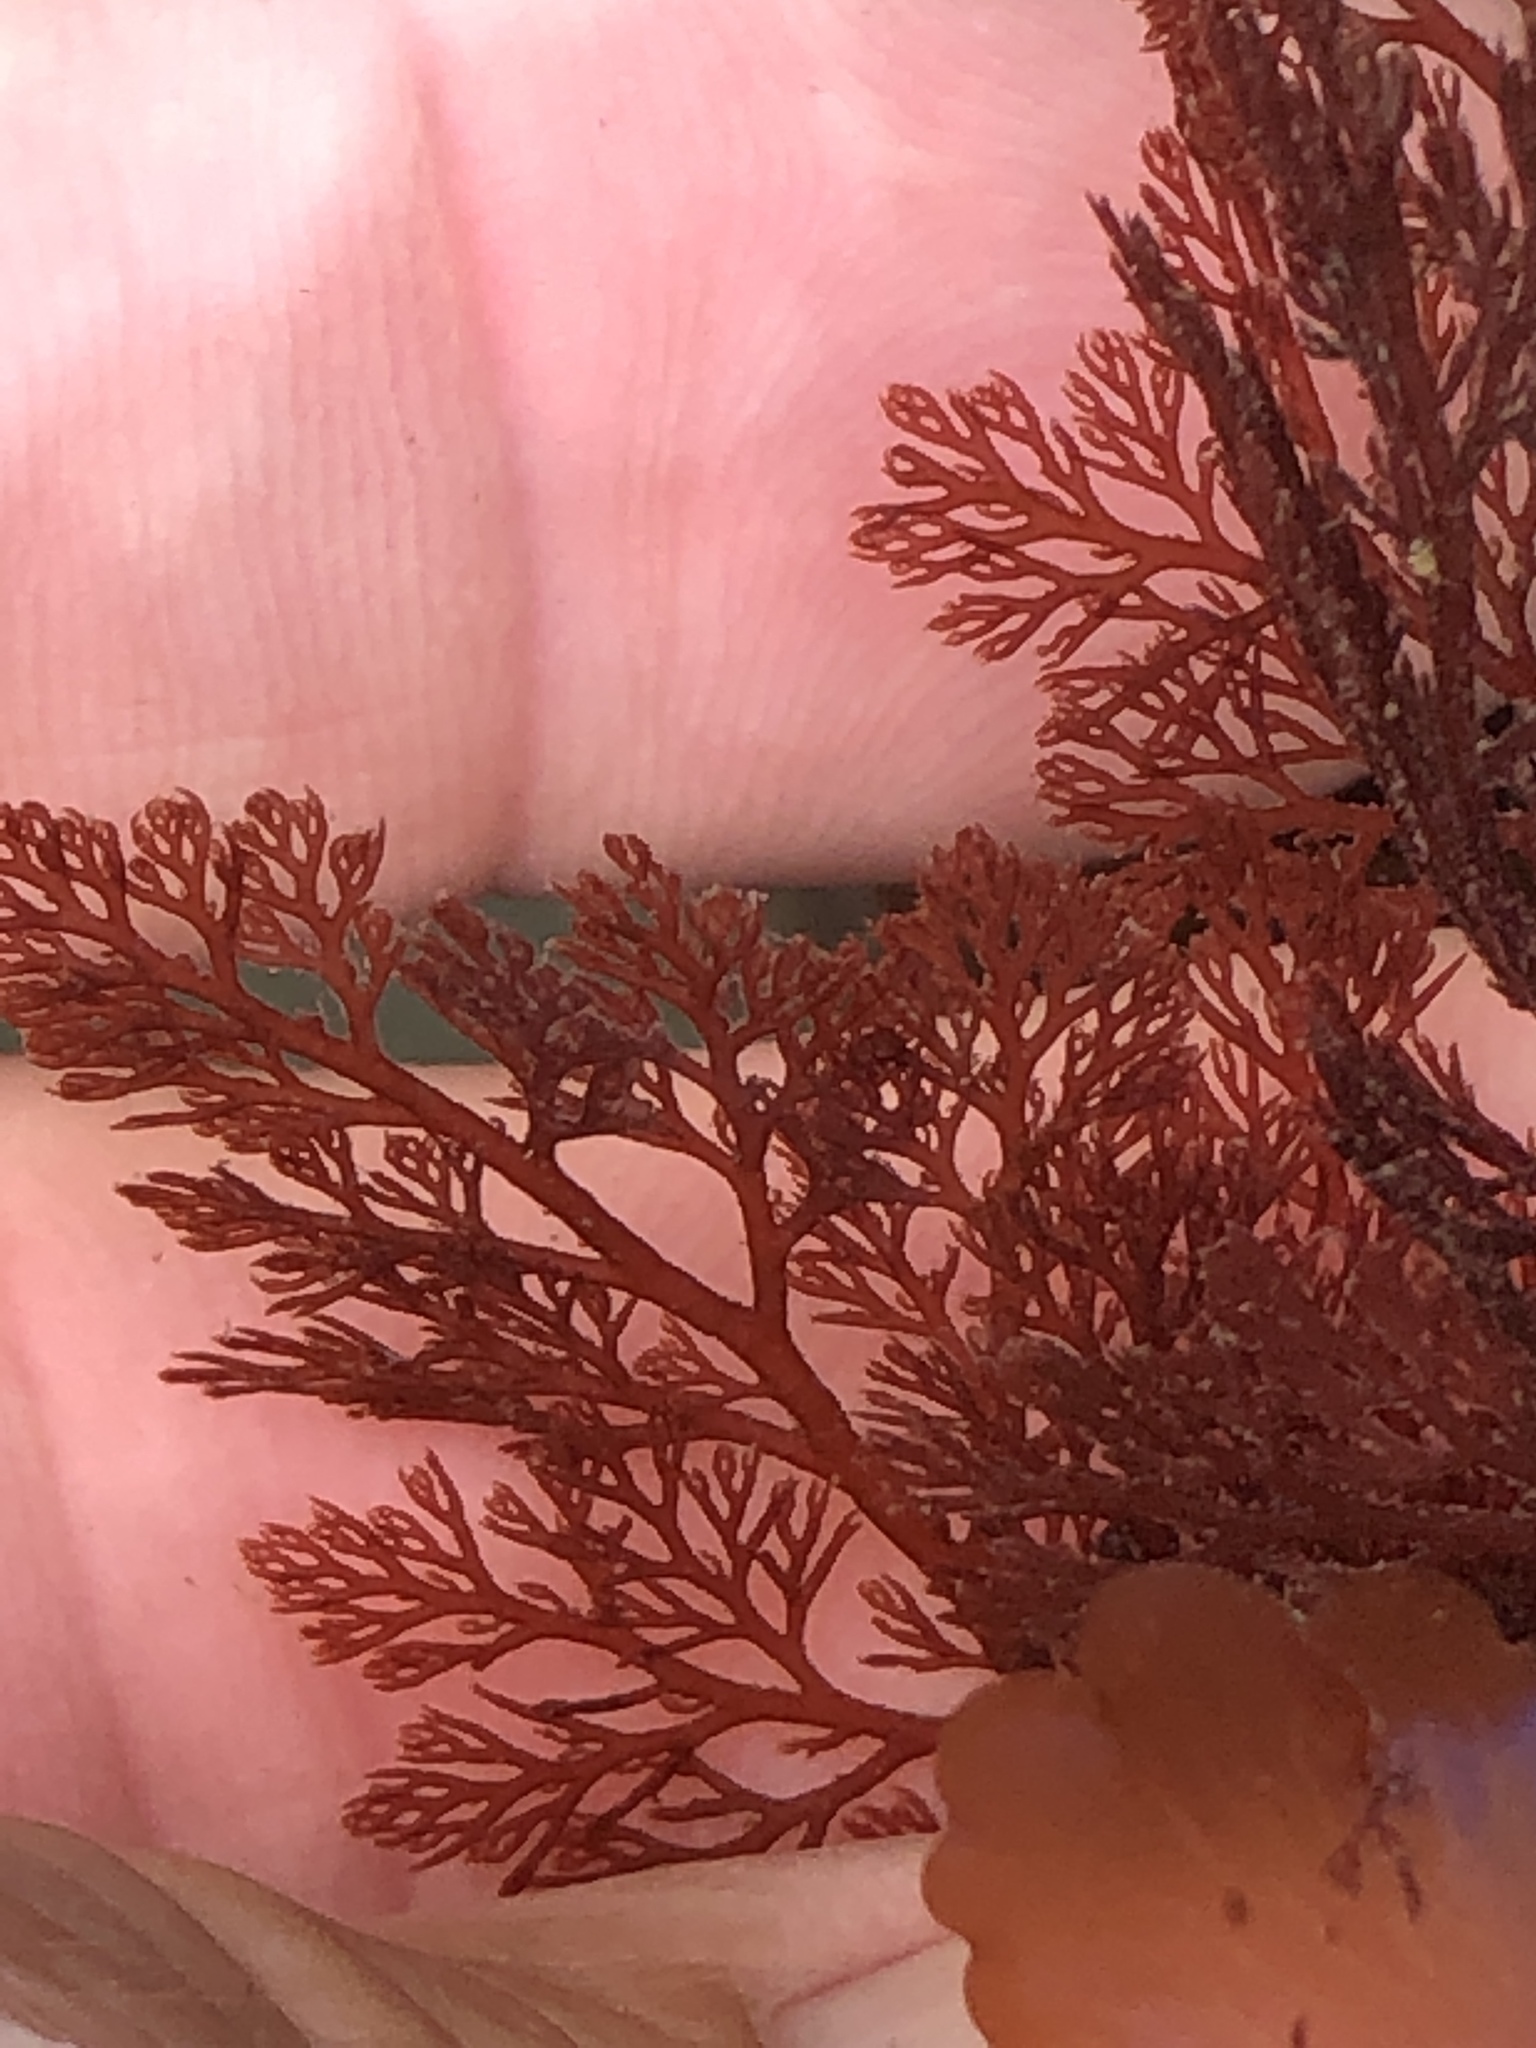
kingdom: Plantae
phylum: Rhodophyta
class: Florideophyceae
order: Ceramiales
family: Ceramiaceae
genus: Microcladia
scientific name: Microcladia coulteri
